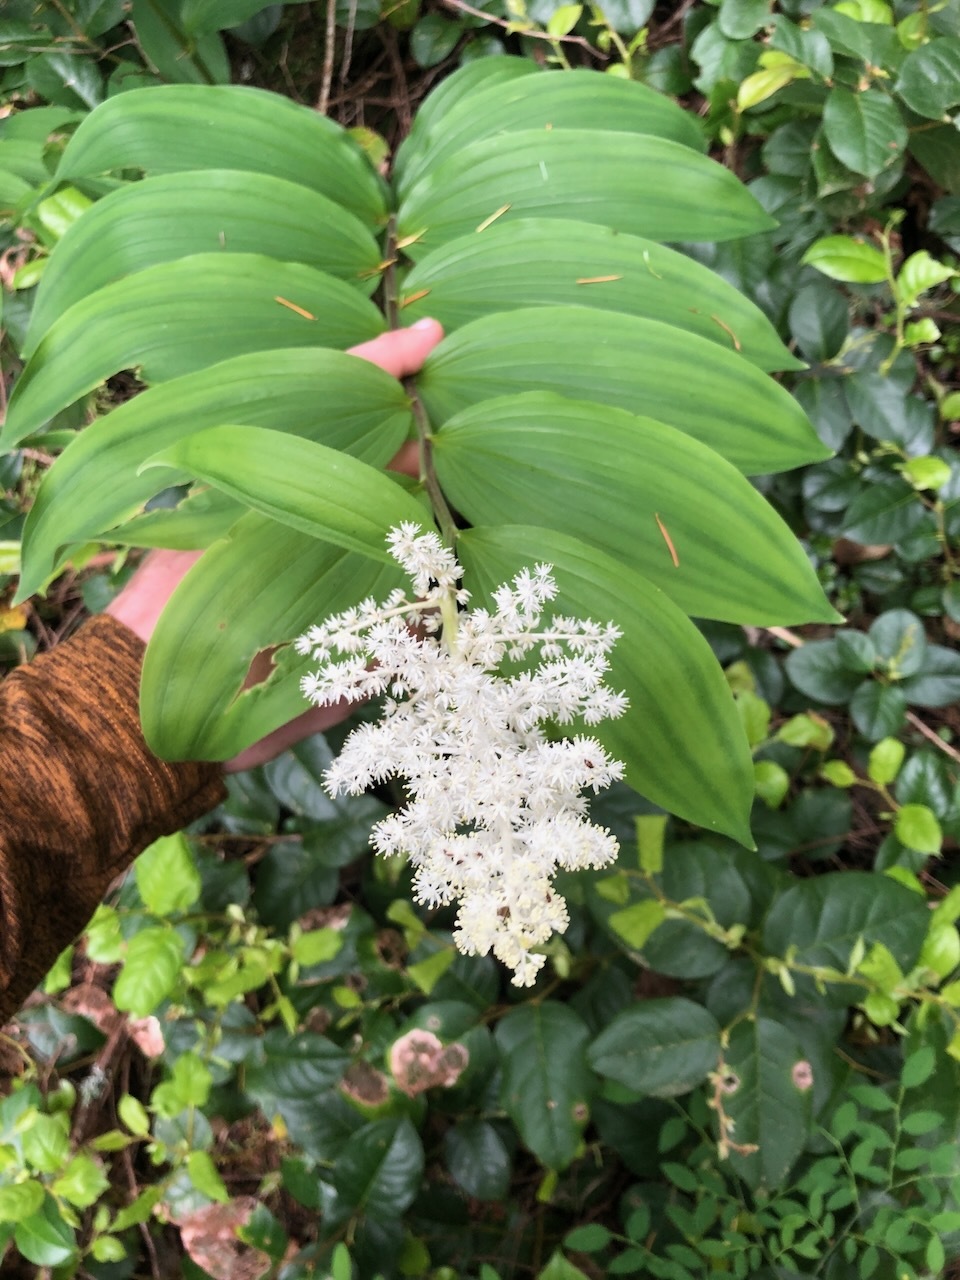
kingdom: Plantae
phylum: Tracheophyta
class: Liliopsida
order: Asparagales
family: Asparagaceae
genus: Maianthemum
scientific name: Maianthemum racemosum
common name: False spikenard
